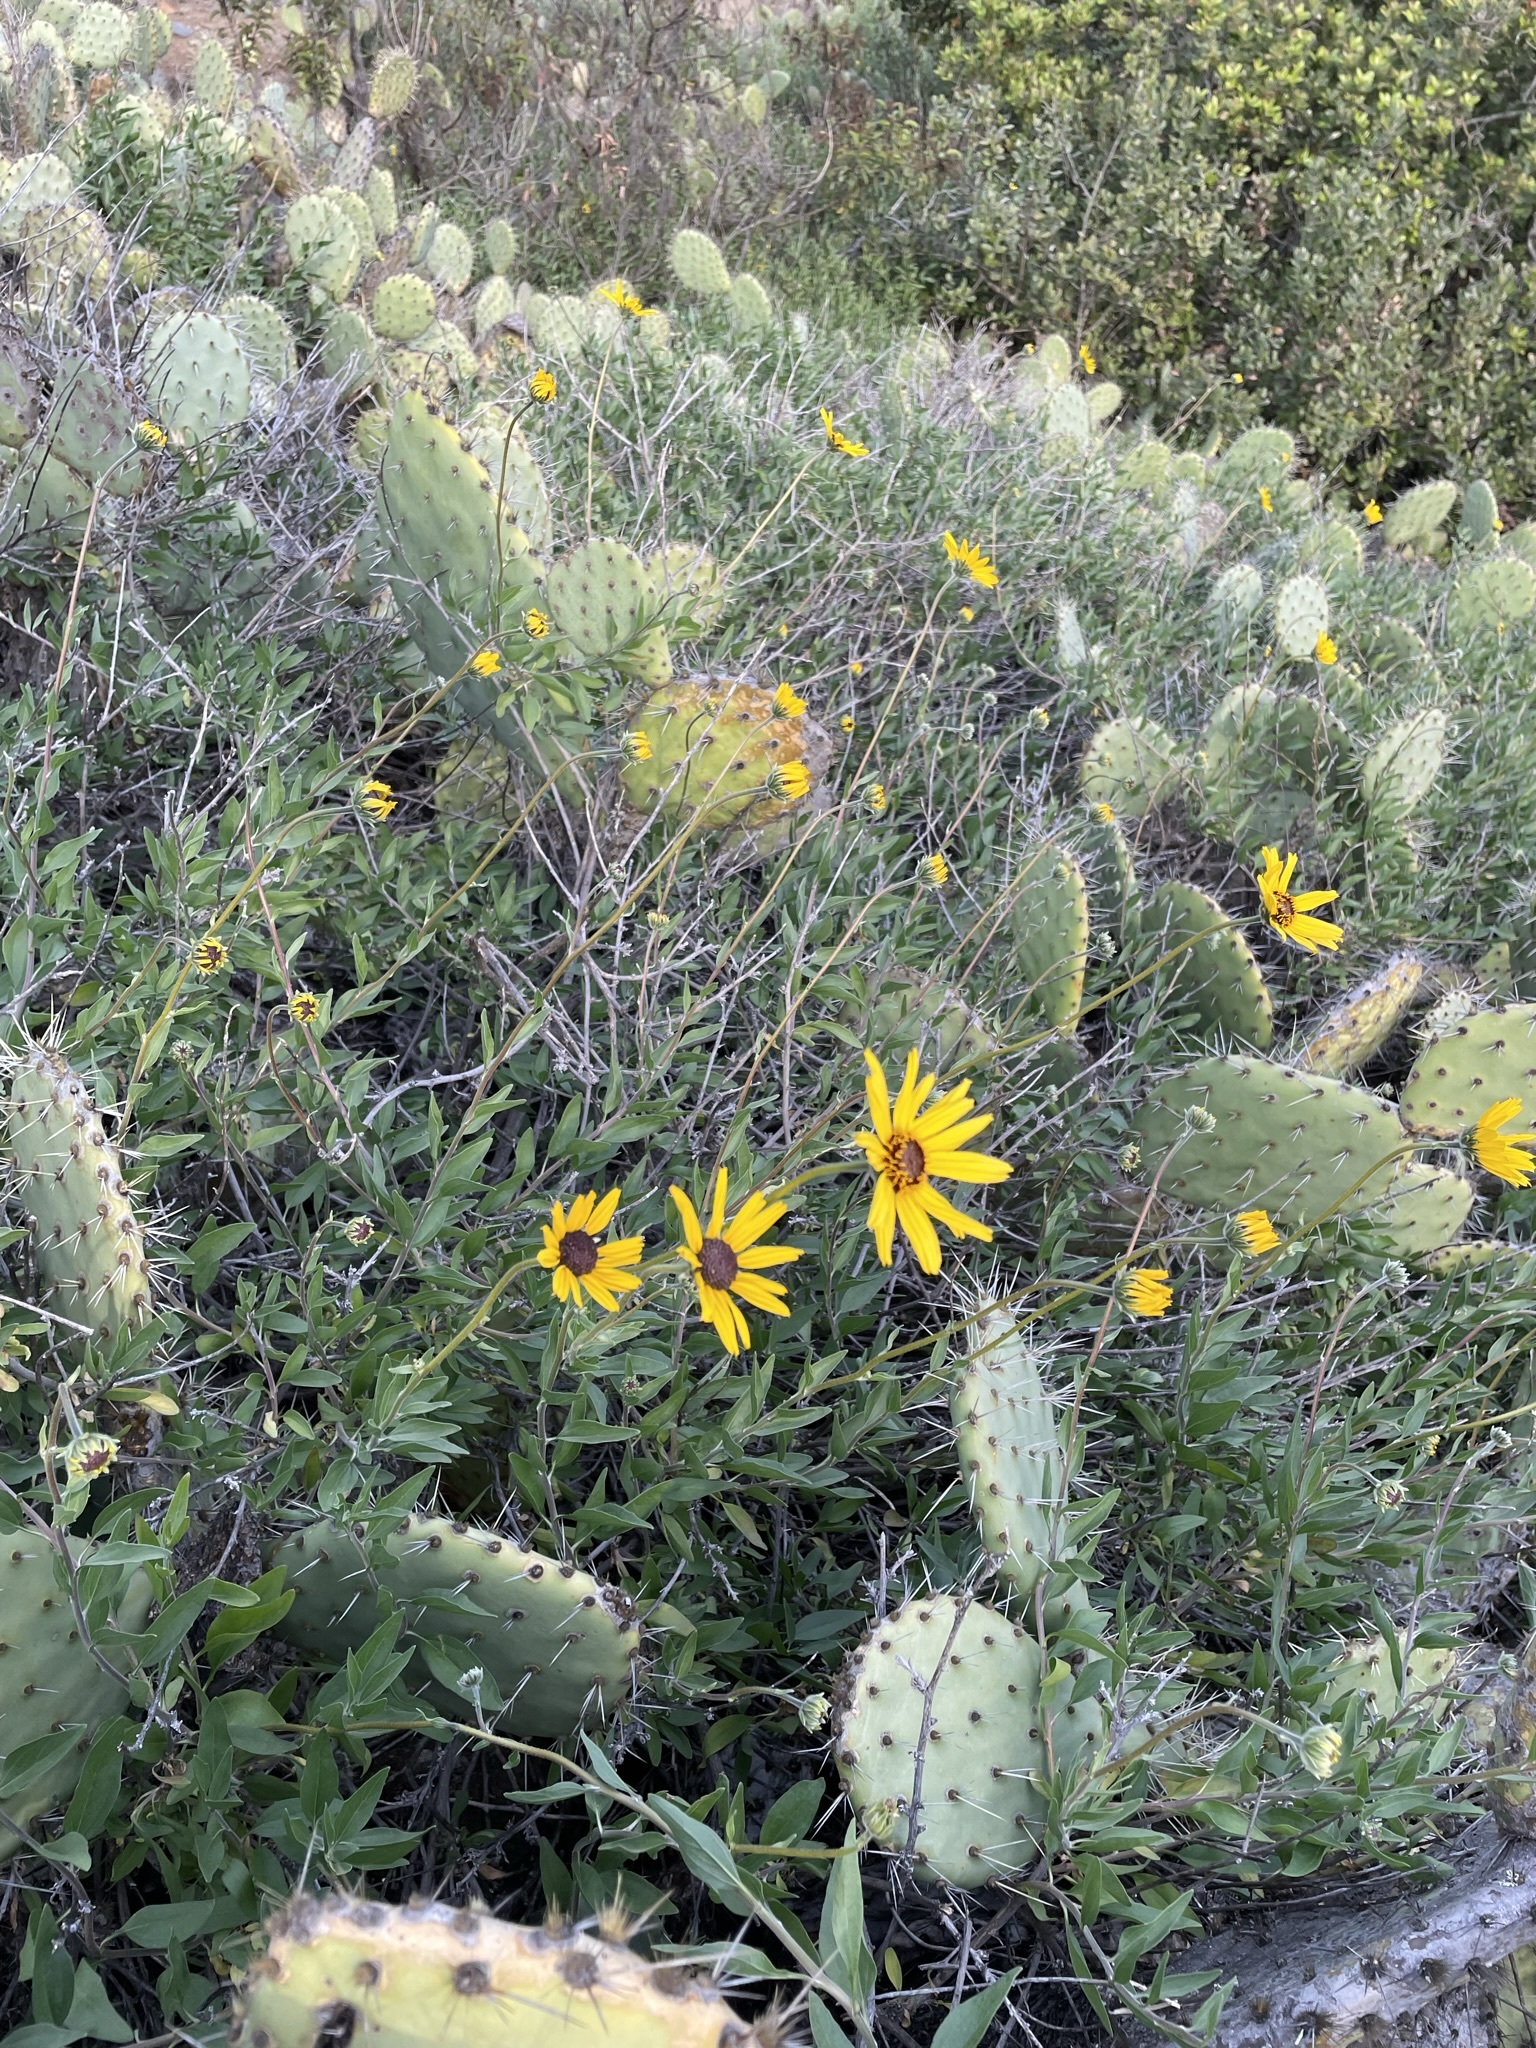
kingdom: Plantae
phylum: Tracheophyta
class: Magnoliopsida
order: Asterales
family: Asteraceae
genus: Encelia
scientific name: Encelia californica
